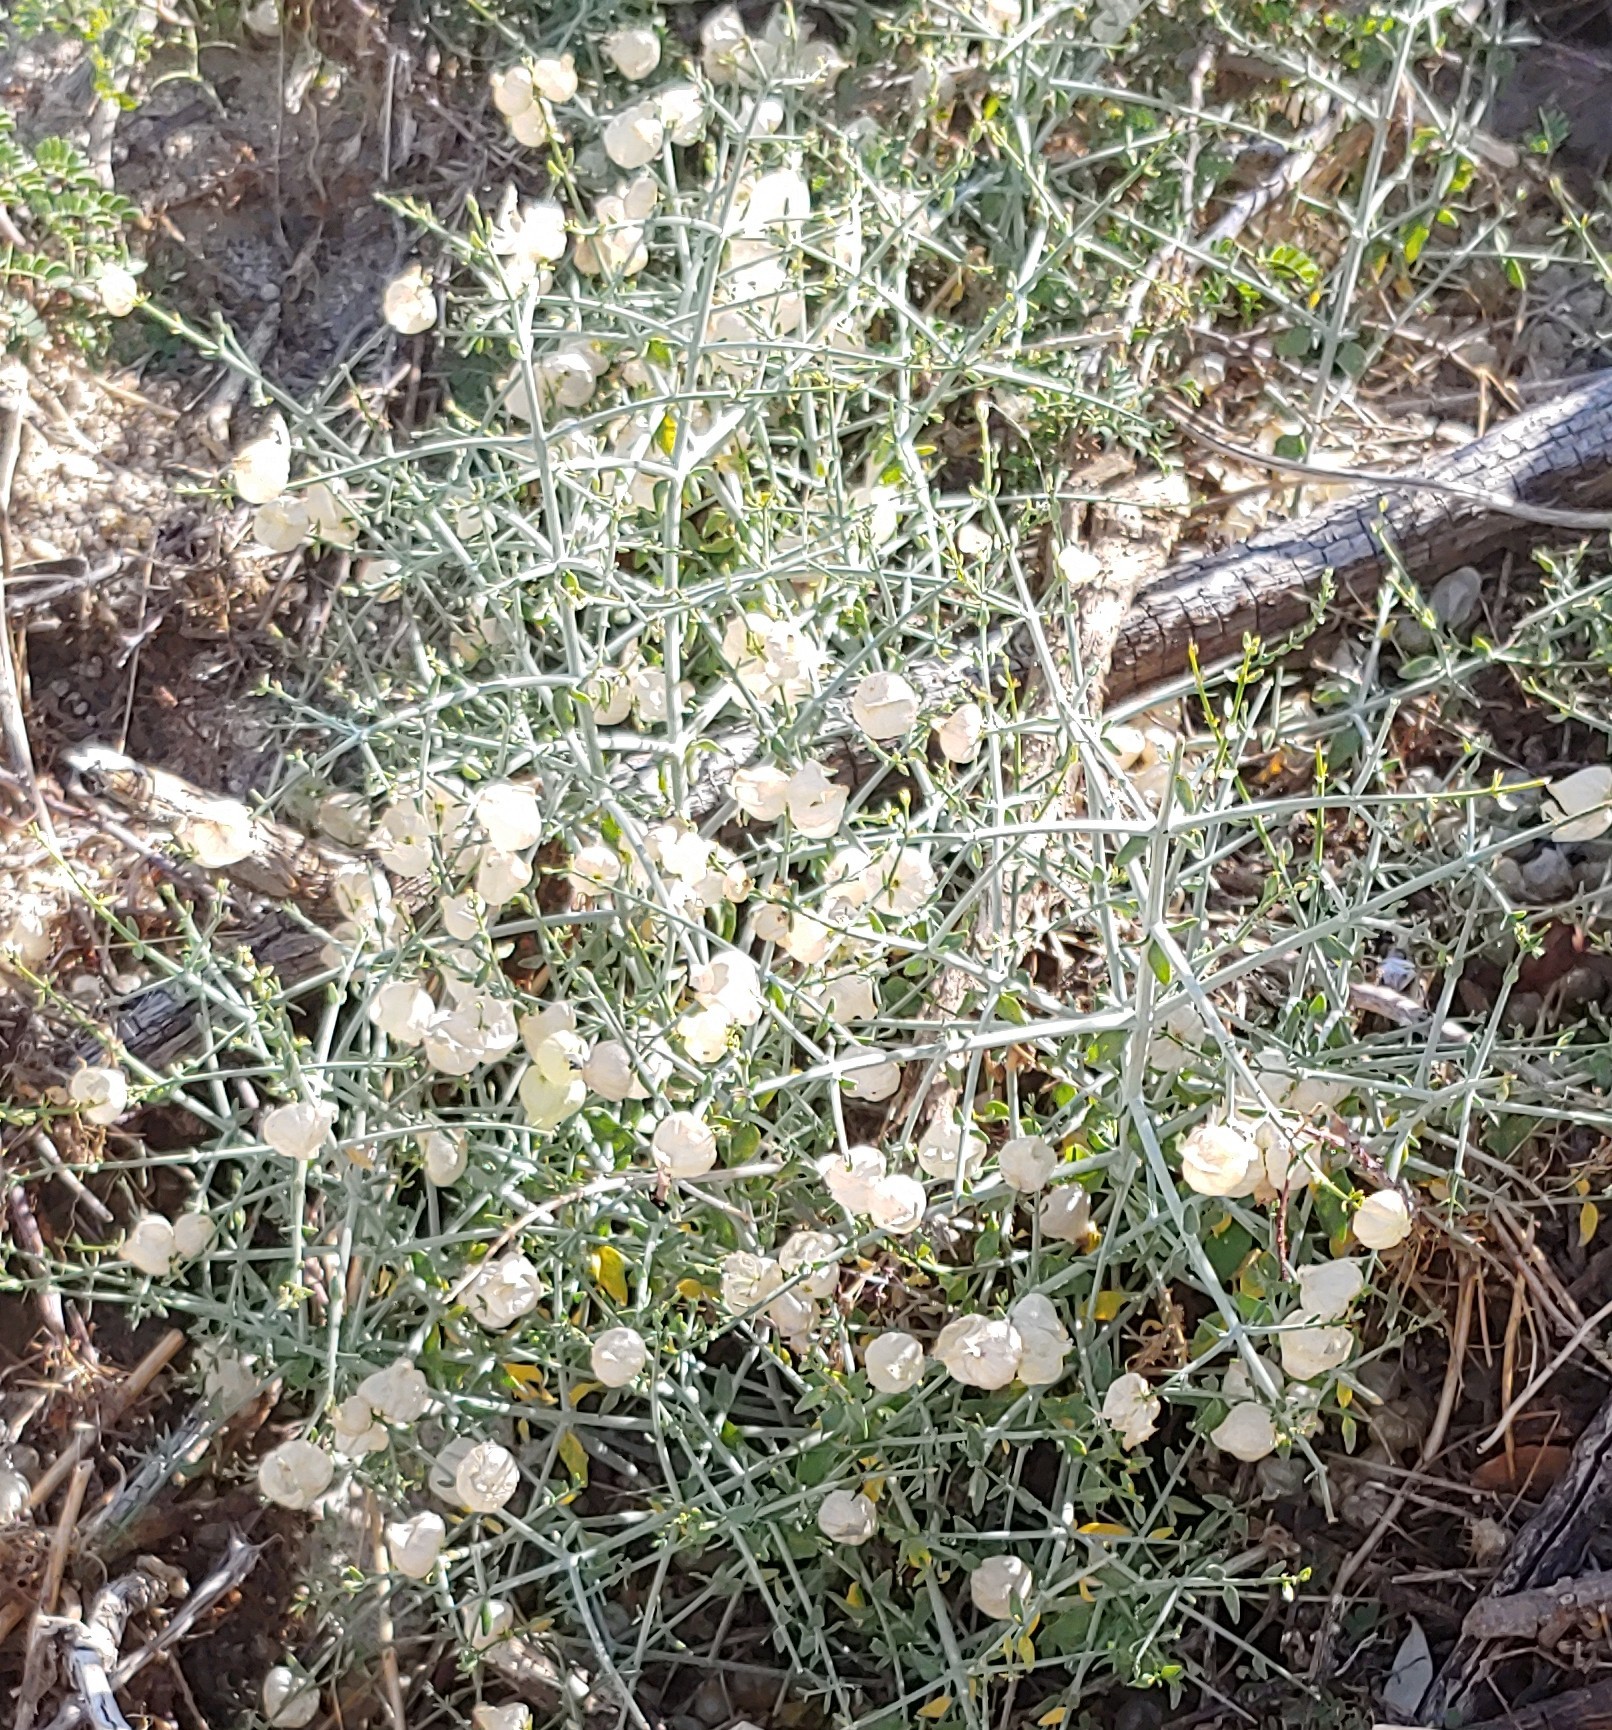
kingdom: Plantae
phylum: Tracheophyta
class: Magnoliopsida
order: Lamiales
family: Lamiaceae
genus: Scutellaria
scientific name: Scutellaria mexicana
